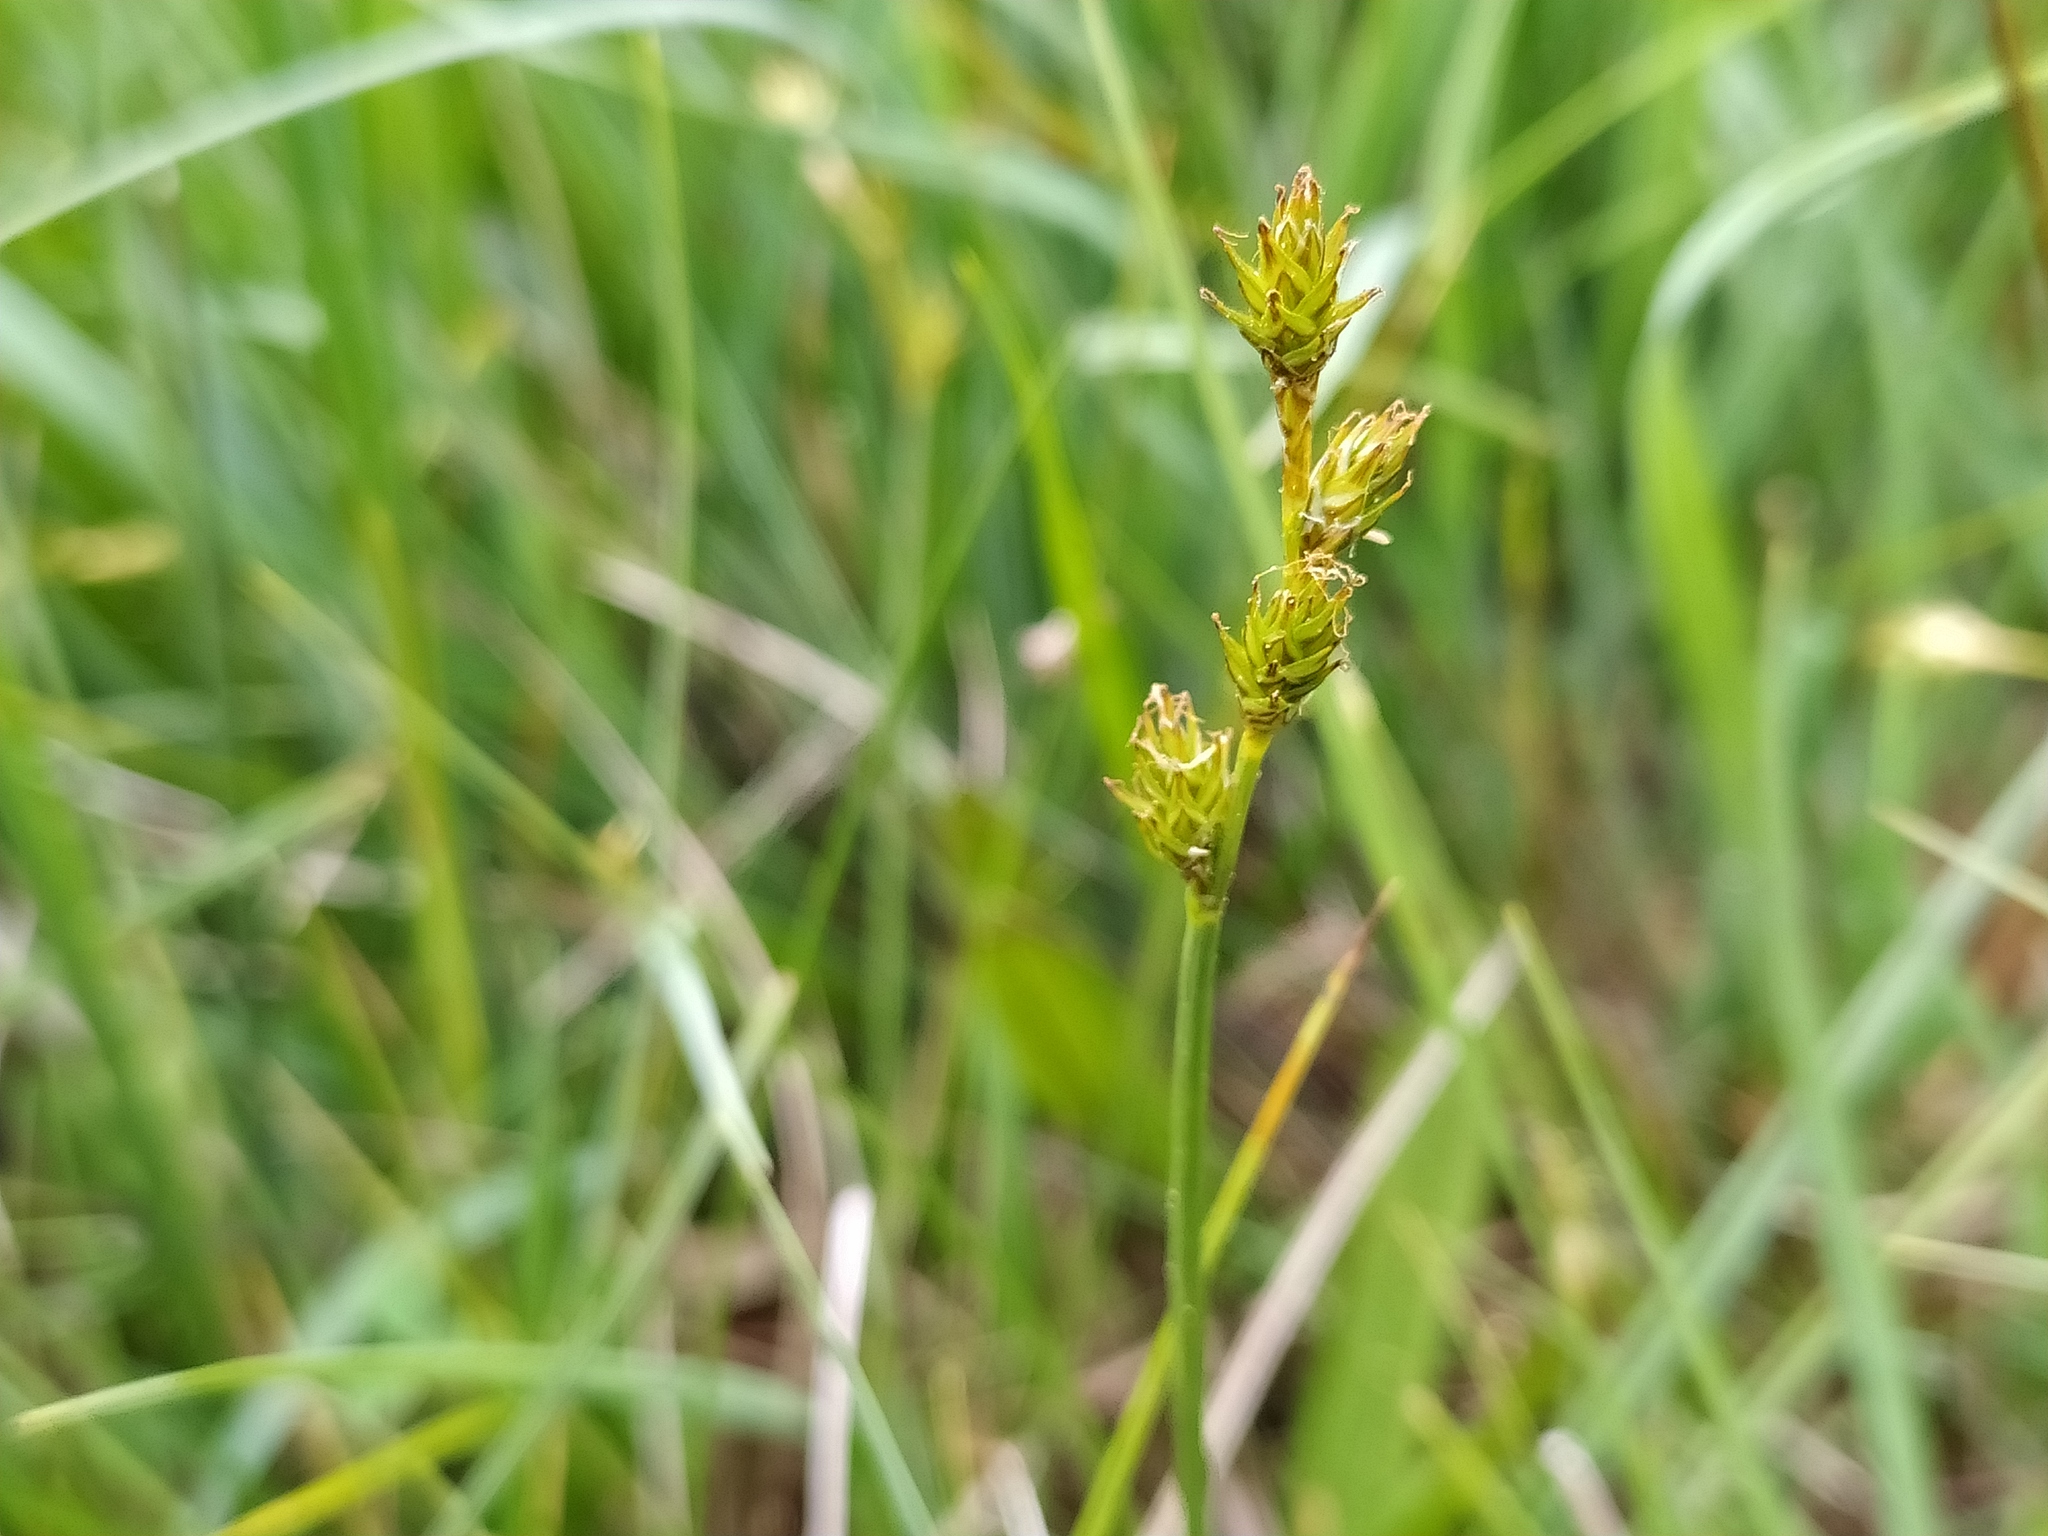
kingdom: Plantae
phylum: Tracheophyta
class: Liliopsida
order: Poales
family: Cyperaceae
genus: Carex
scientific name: Carex echinata
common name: Star sedge
